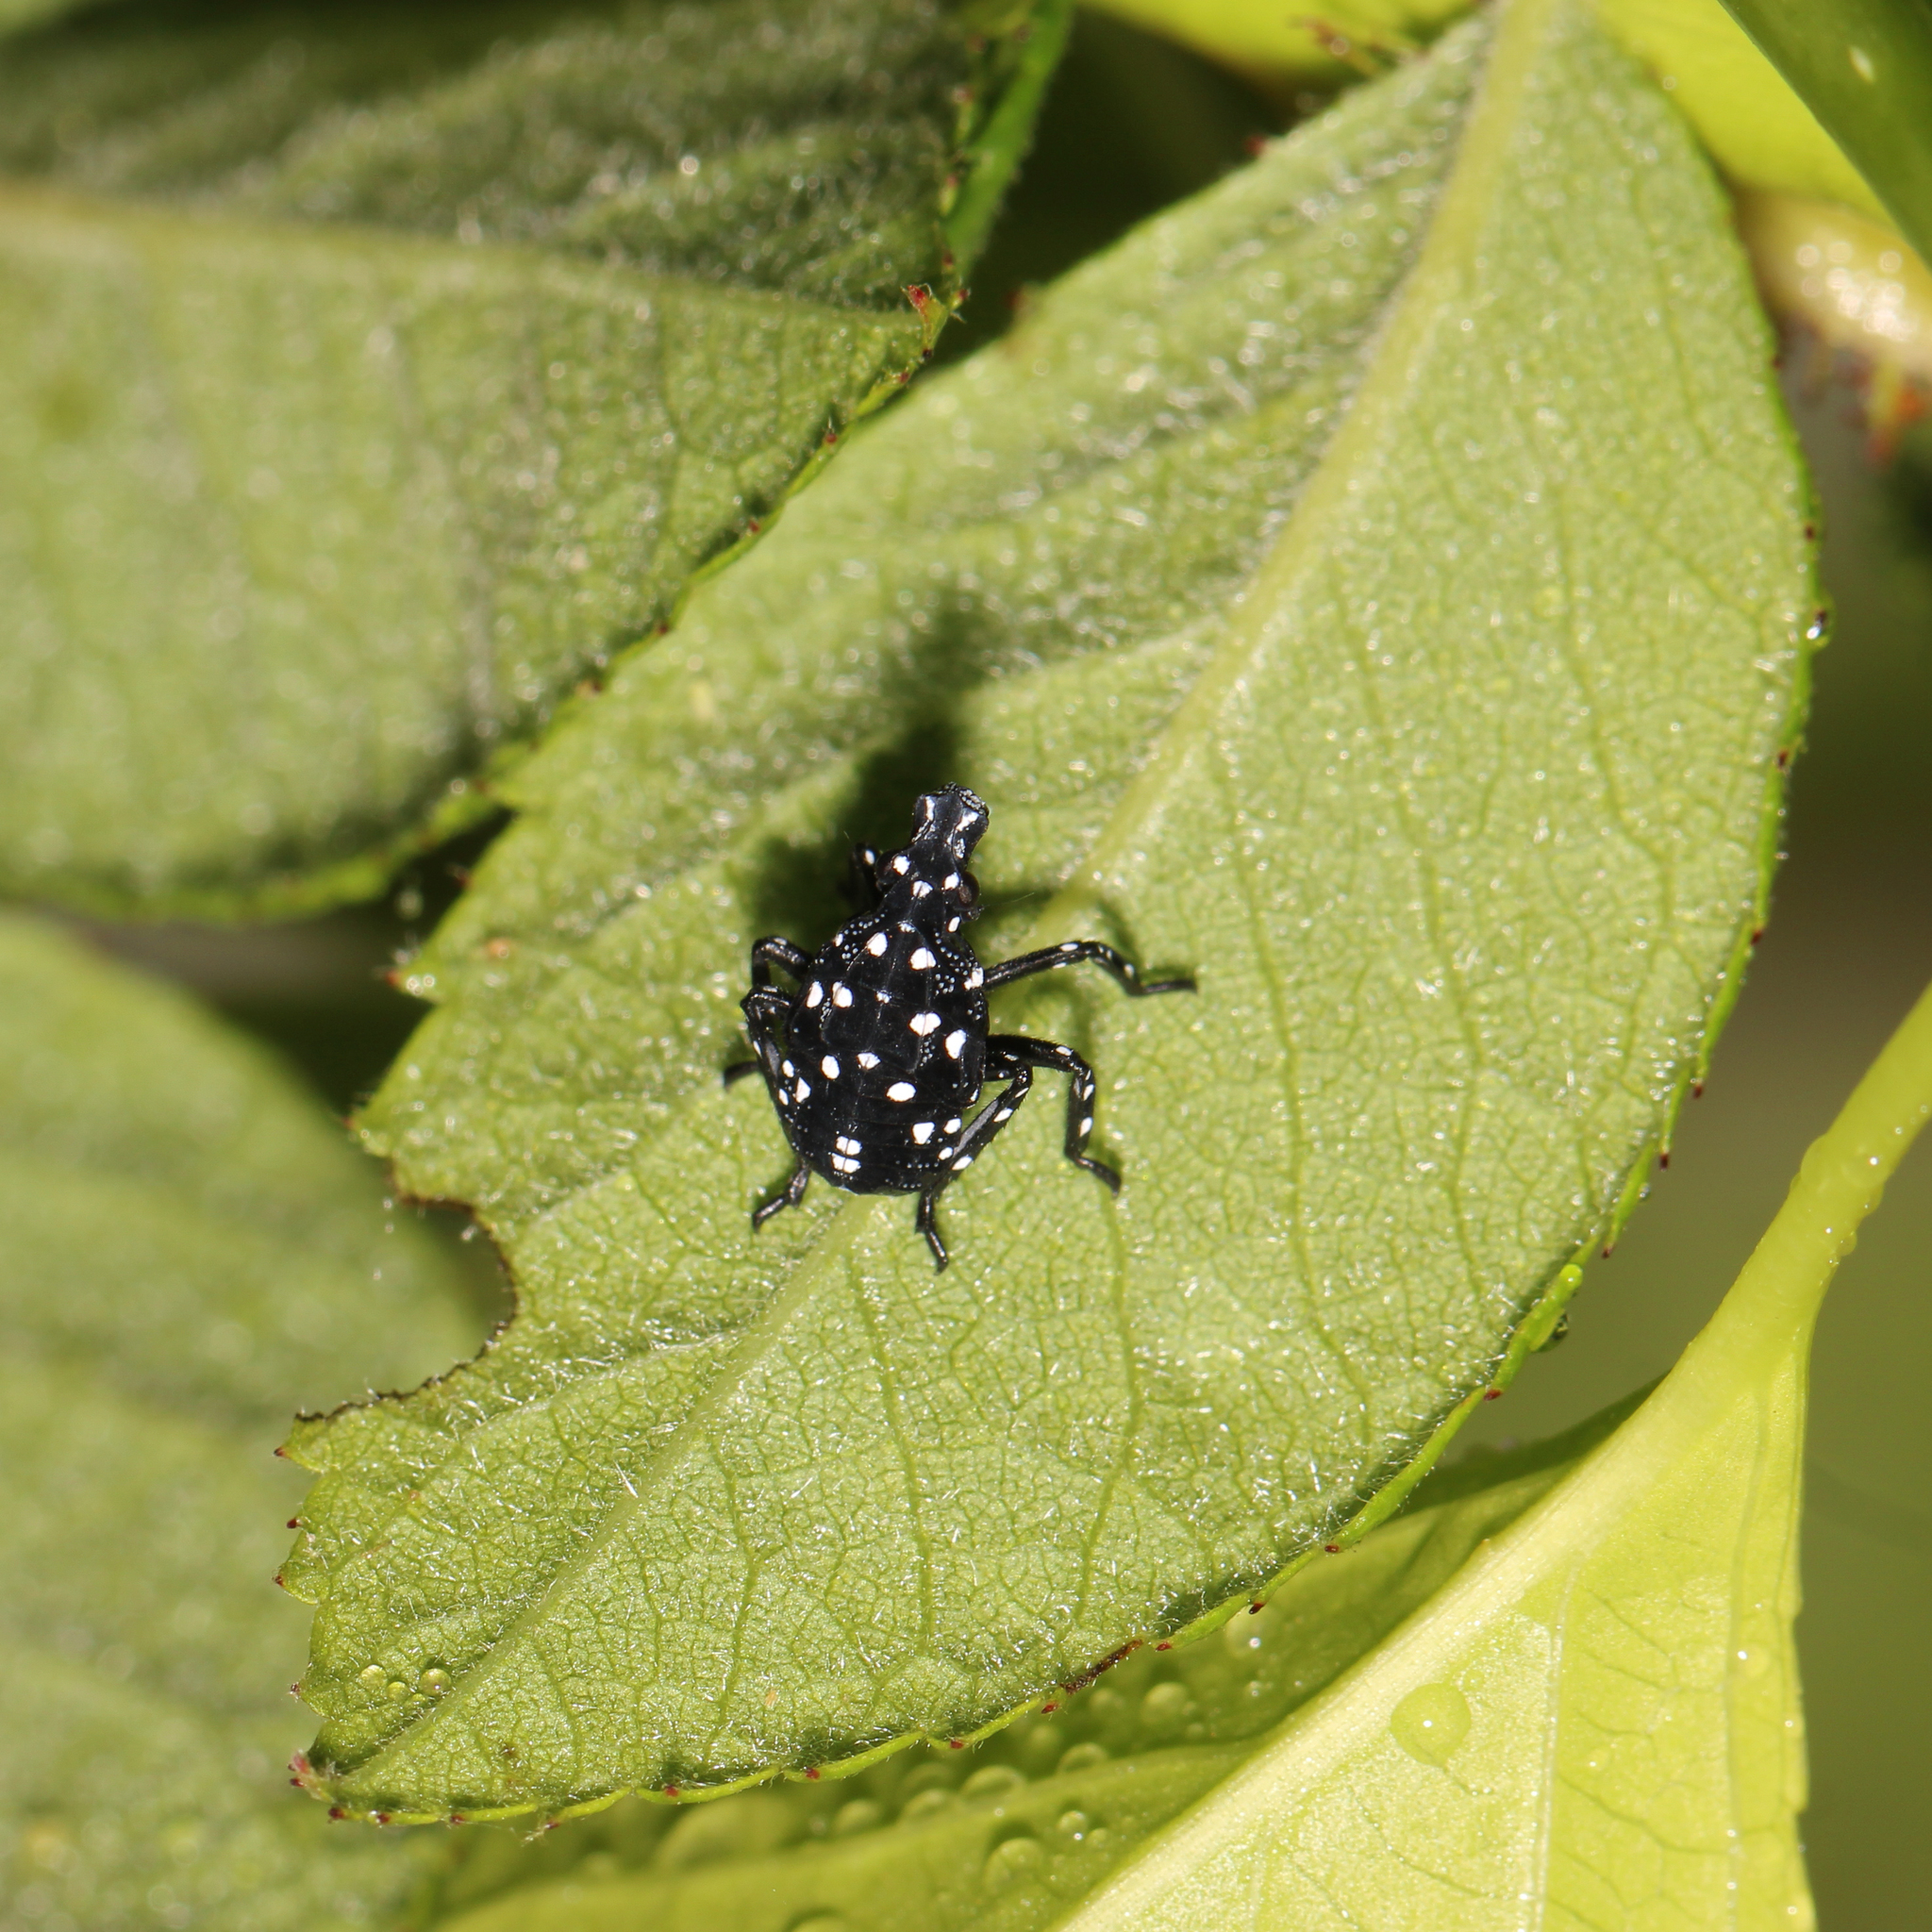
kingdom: Animalia
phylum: Arthropoda
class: Insecta
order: Hemiptera
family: Fulgoridae
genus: Lycorma
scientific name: Lycorma delicatula
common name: Spotted lanternfly
